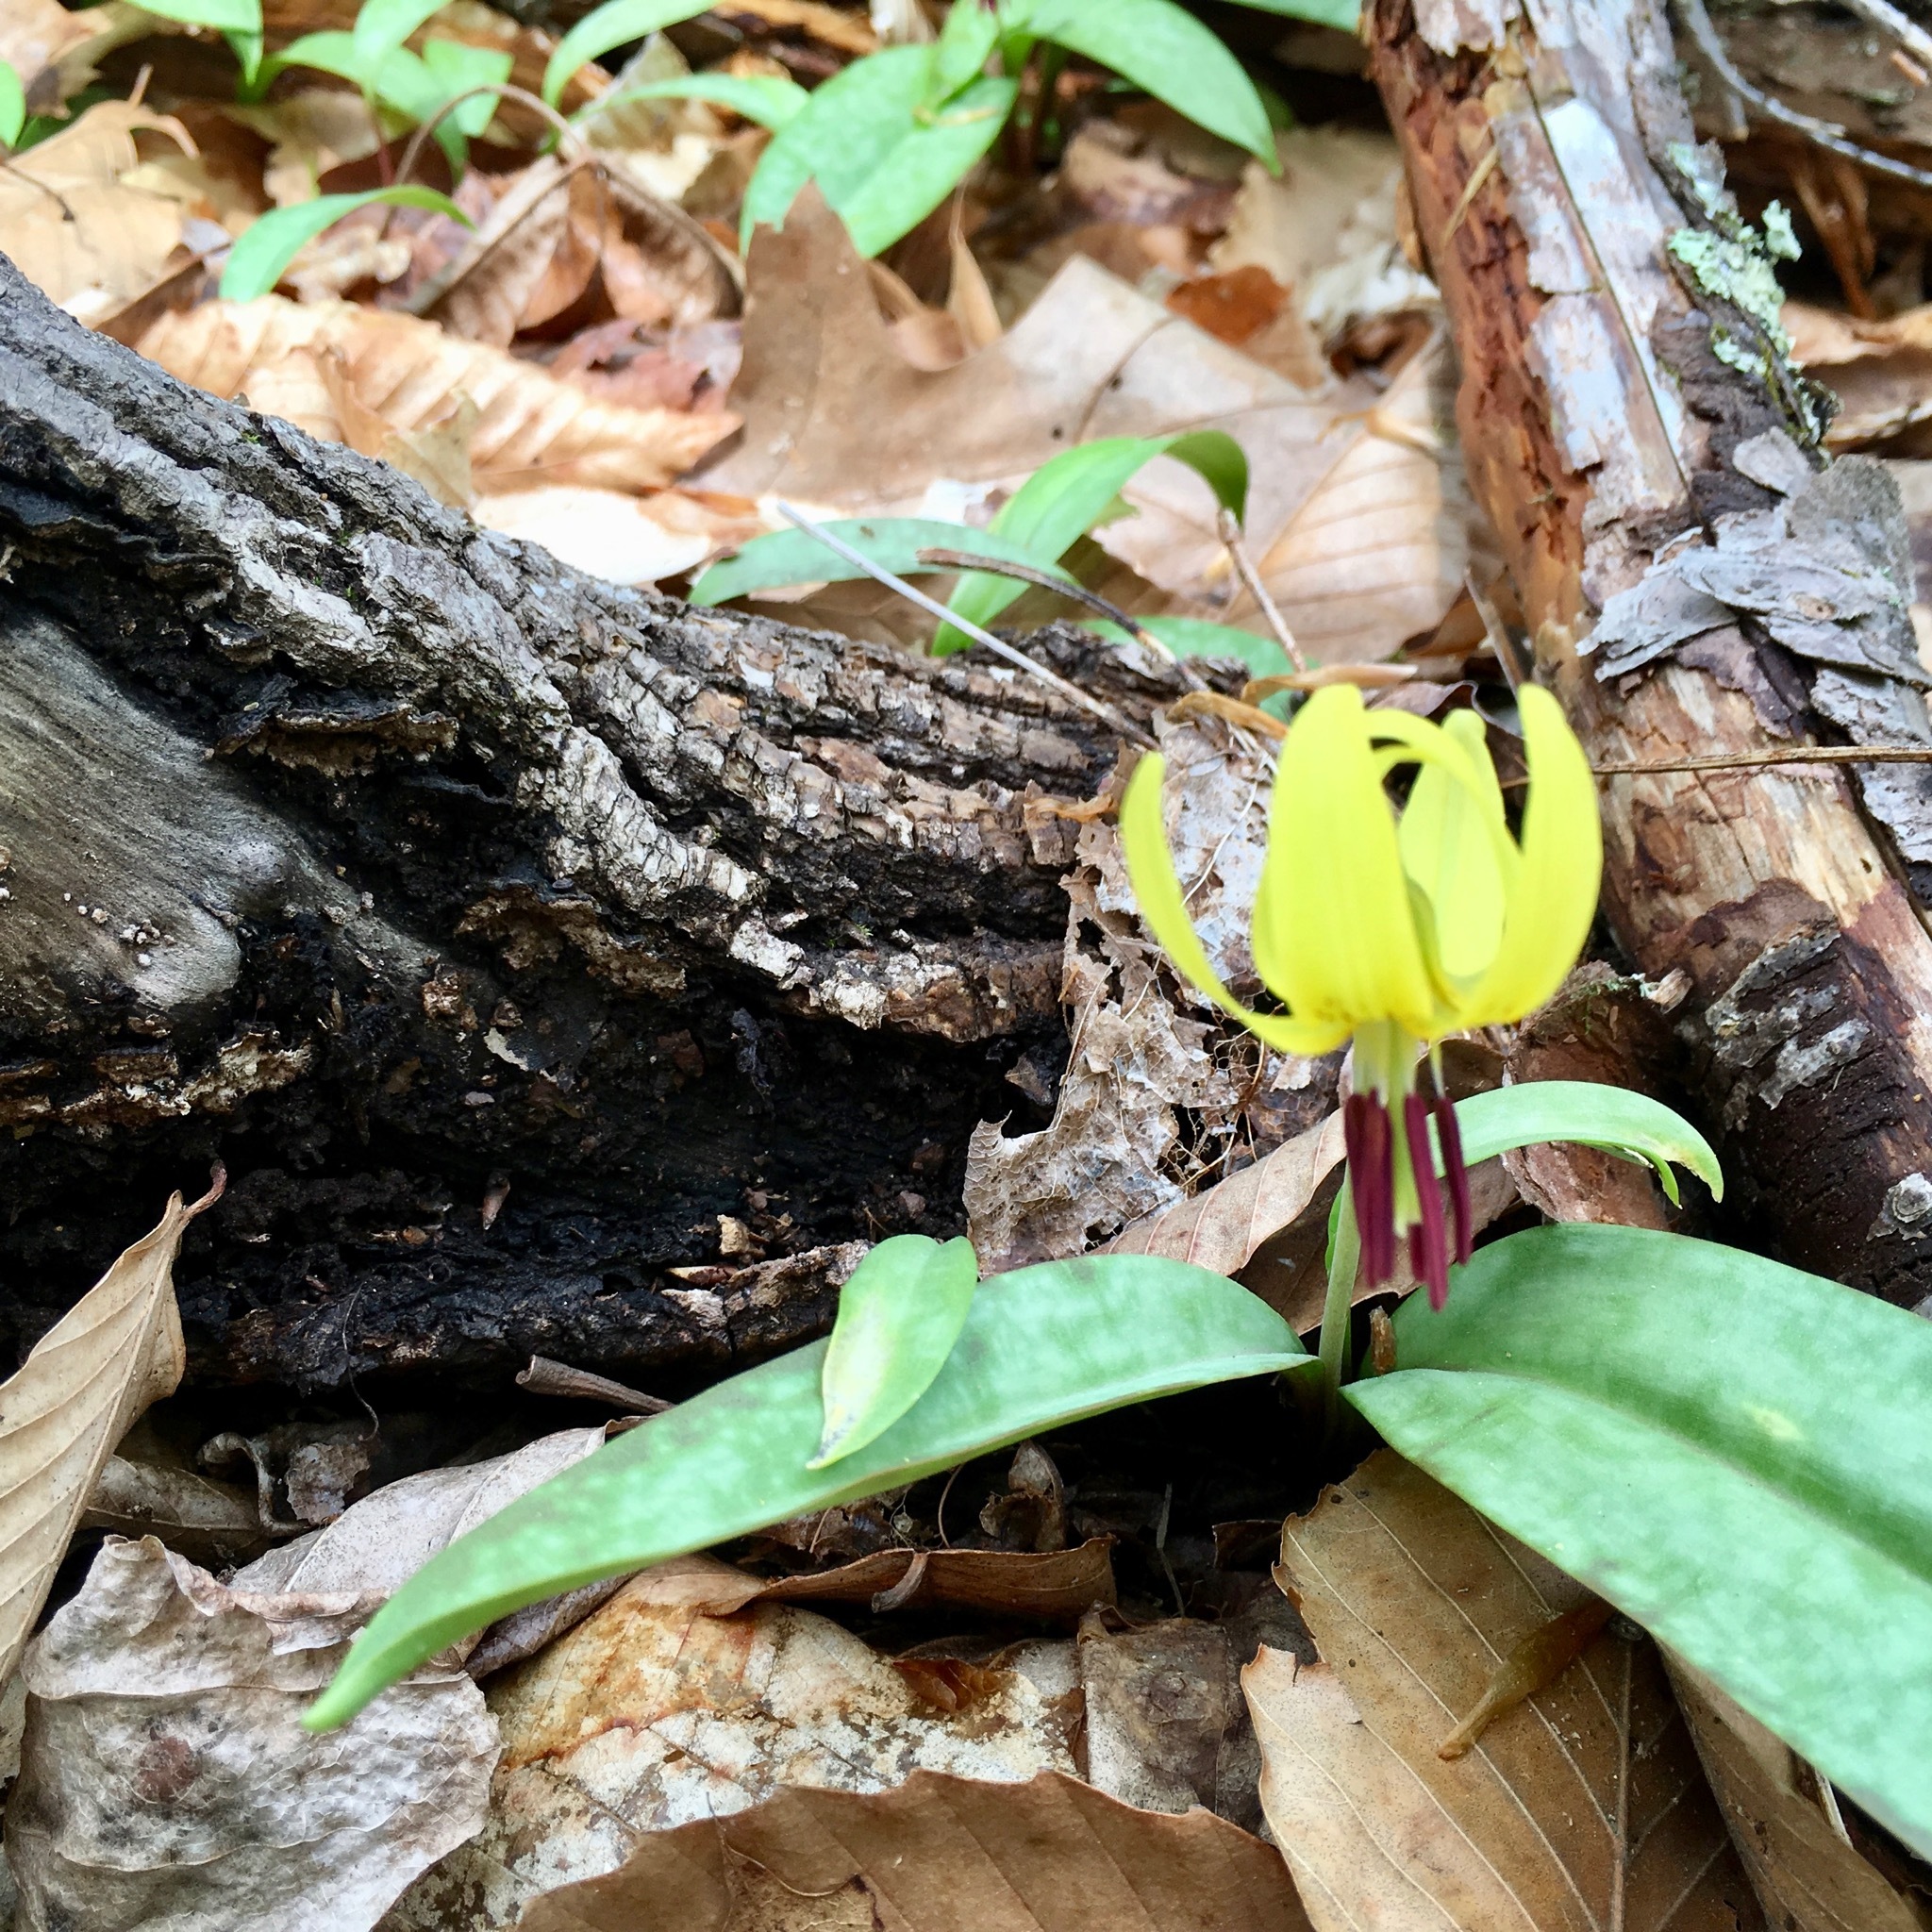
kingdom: Plantae
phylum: Tracheophyta
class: Liliopsida
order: Liliales
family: Liliaceae
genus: Erythronium
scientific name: Erythronium americanum
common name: Yellow adder's-tongue
